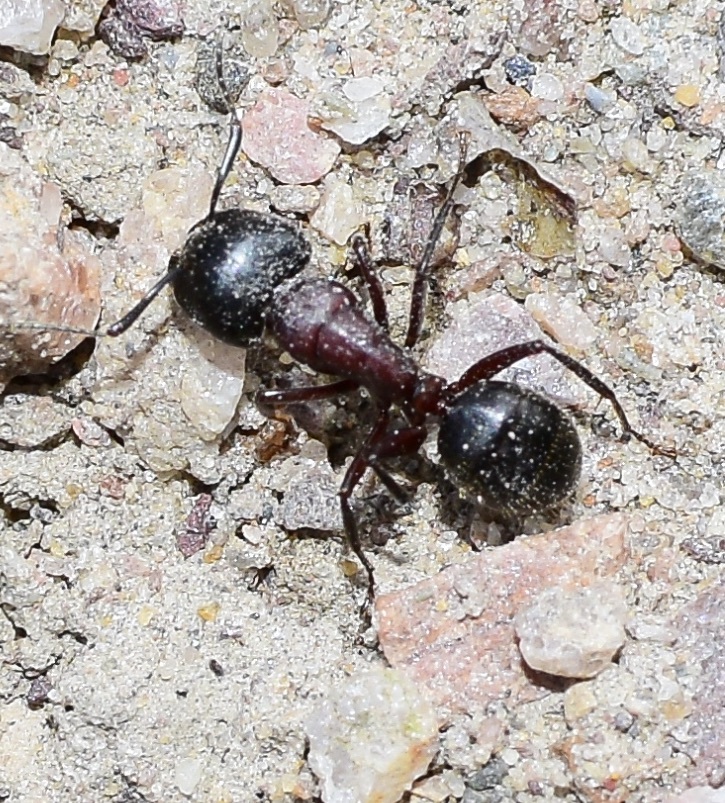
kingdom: Animalia
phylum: Arthropoda
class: Insecta
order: Hymenoptera
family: Formicidae
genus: Camponotus
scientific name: Camponotus novaeboracensis
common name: New york carpenter ant
